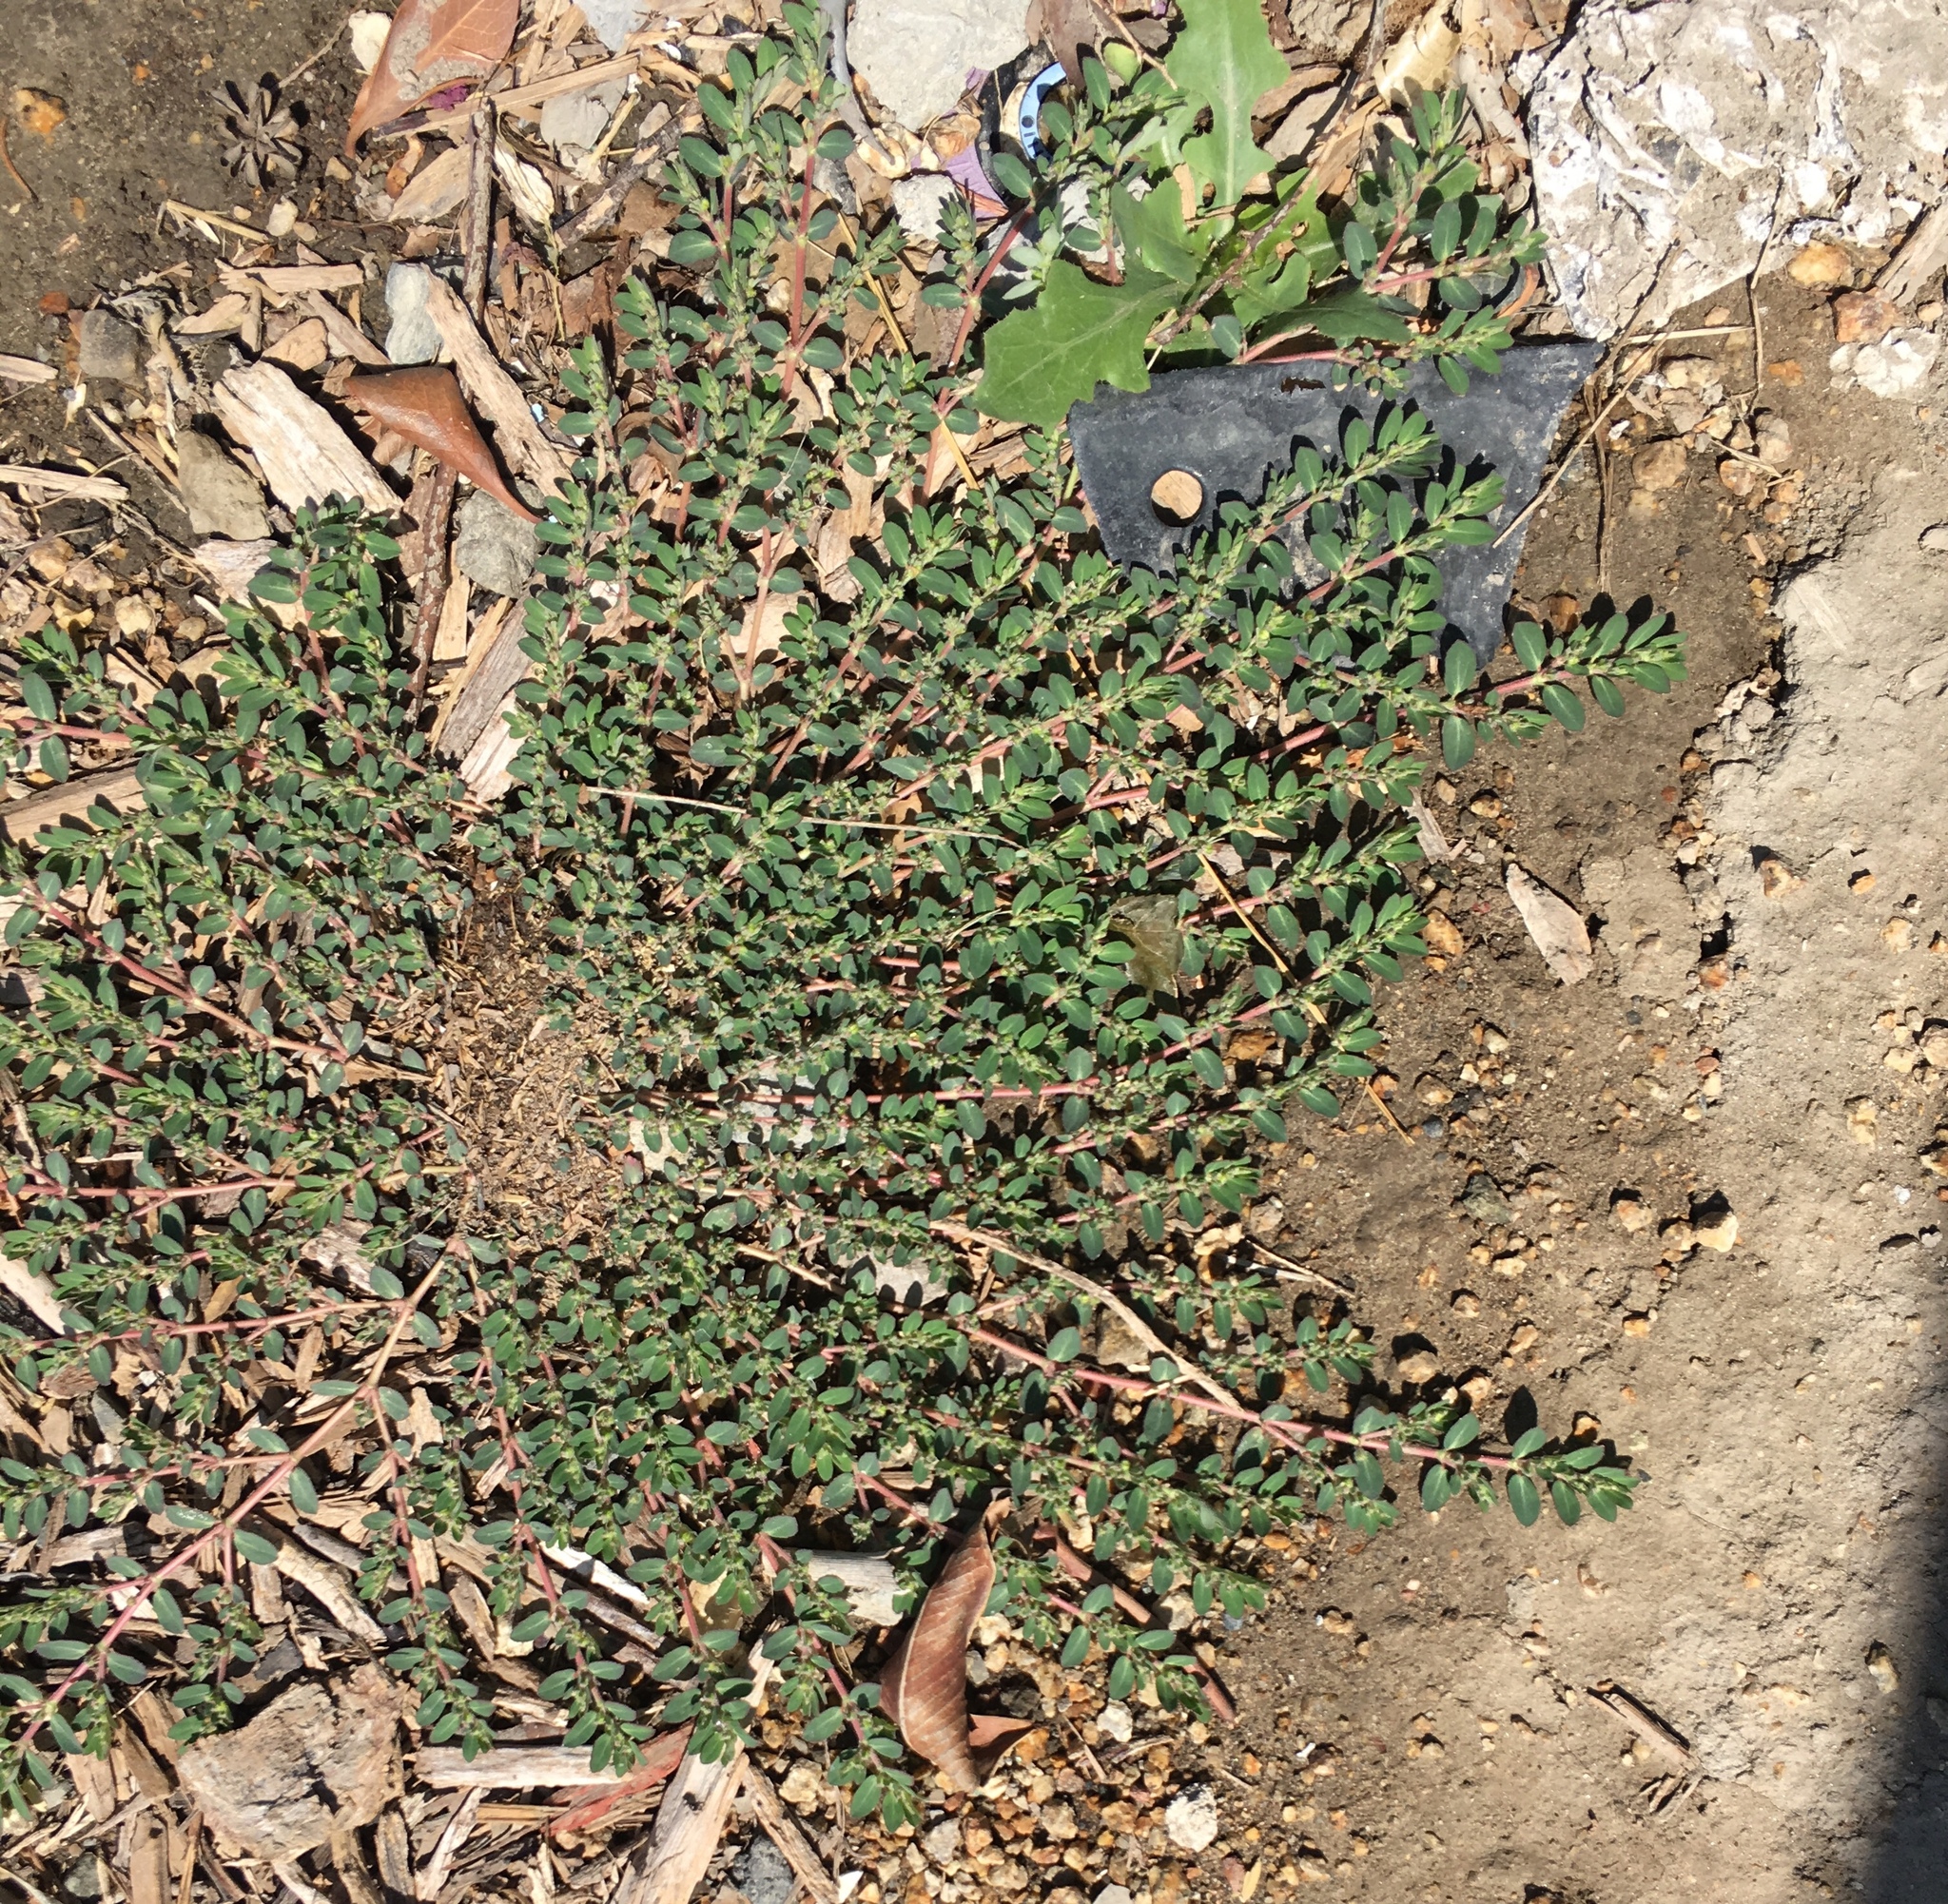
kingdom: Plantae
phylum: Tracheophyta
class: Magnoliopsida
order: Malpighiales
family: Euphorbiaceae
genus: Euphorbia
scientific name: Euphorbia prostrata
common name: Prostrate sandmat
